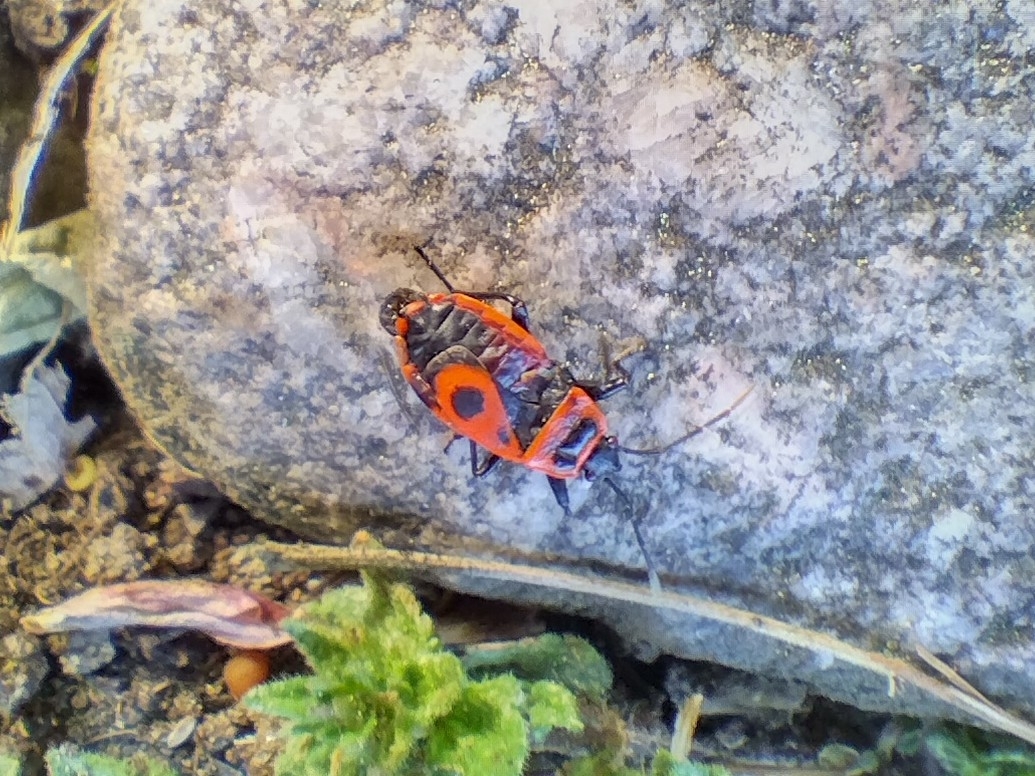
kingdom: Animalia
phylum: Arthropoda
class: Insecta
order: Hemiptera
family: Pyrrhocoridae
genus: Pyrrhocoris
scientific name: Pyrrhocoris apterus
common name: Firebug
